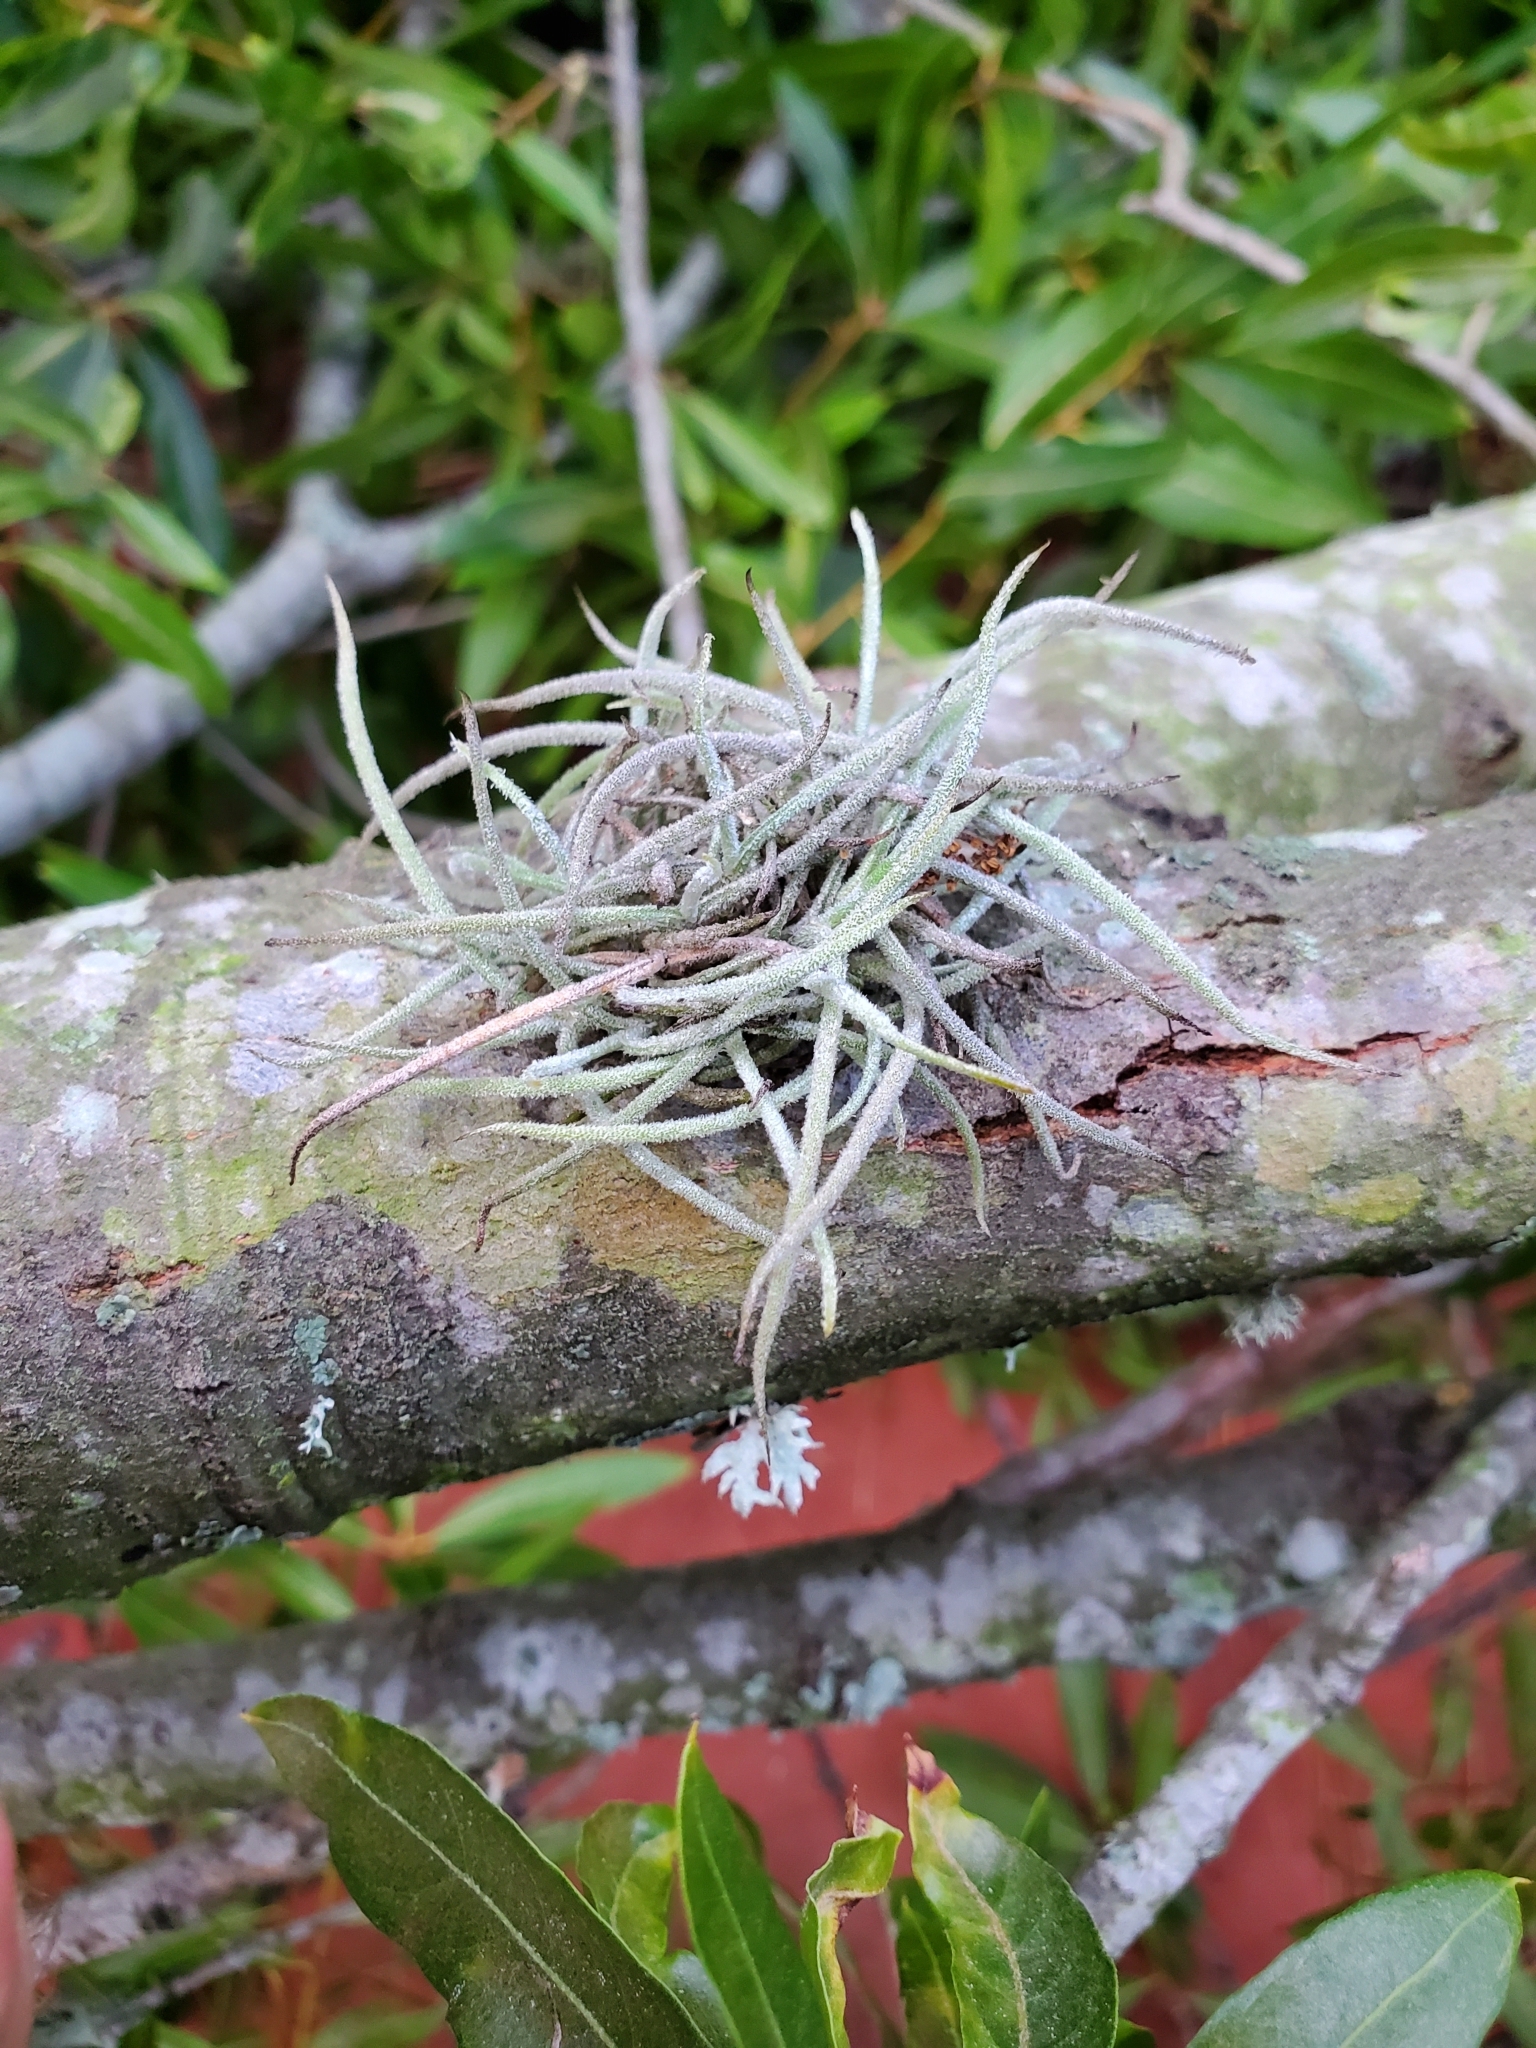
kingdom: Plantae
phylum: Tracheophyta
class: Liliopsida
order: Poales
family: Bromeliaceae
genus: Tillandsia
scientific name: Tillandsia recurvata
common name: Small ballmoss
